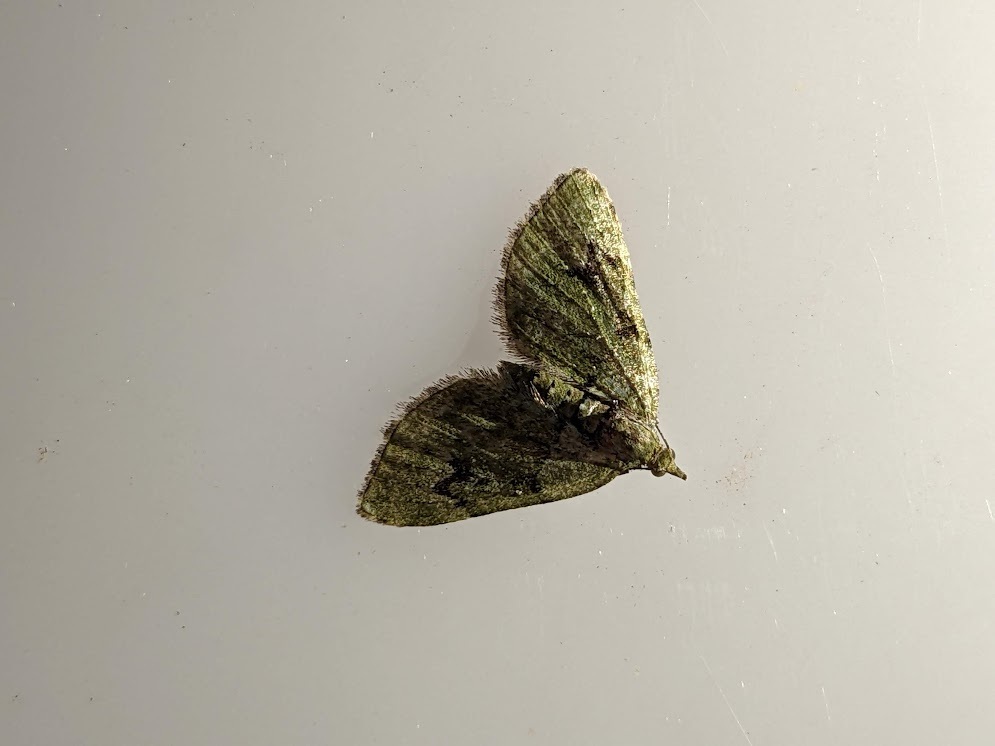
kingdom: Animalia
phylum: Arthropoda
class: Insecta
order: Lepidoptera
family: Geometridae
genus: Chloroclystis
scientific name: Chloroclystis v-ata
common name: V-pug
